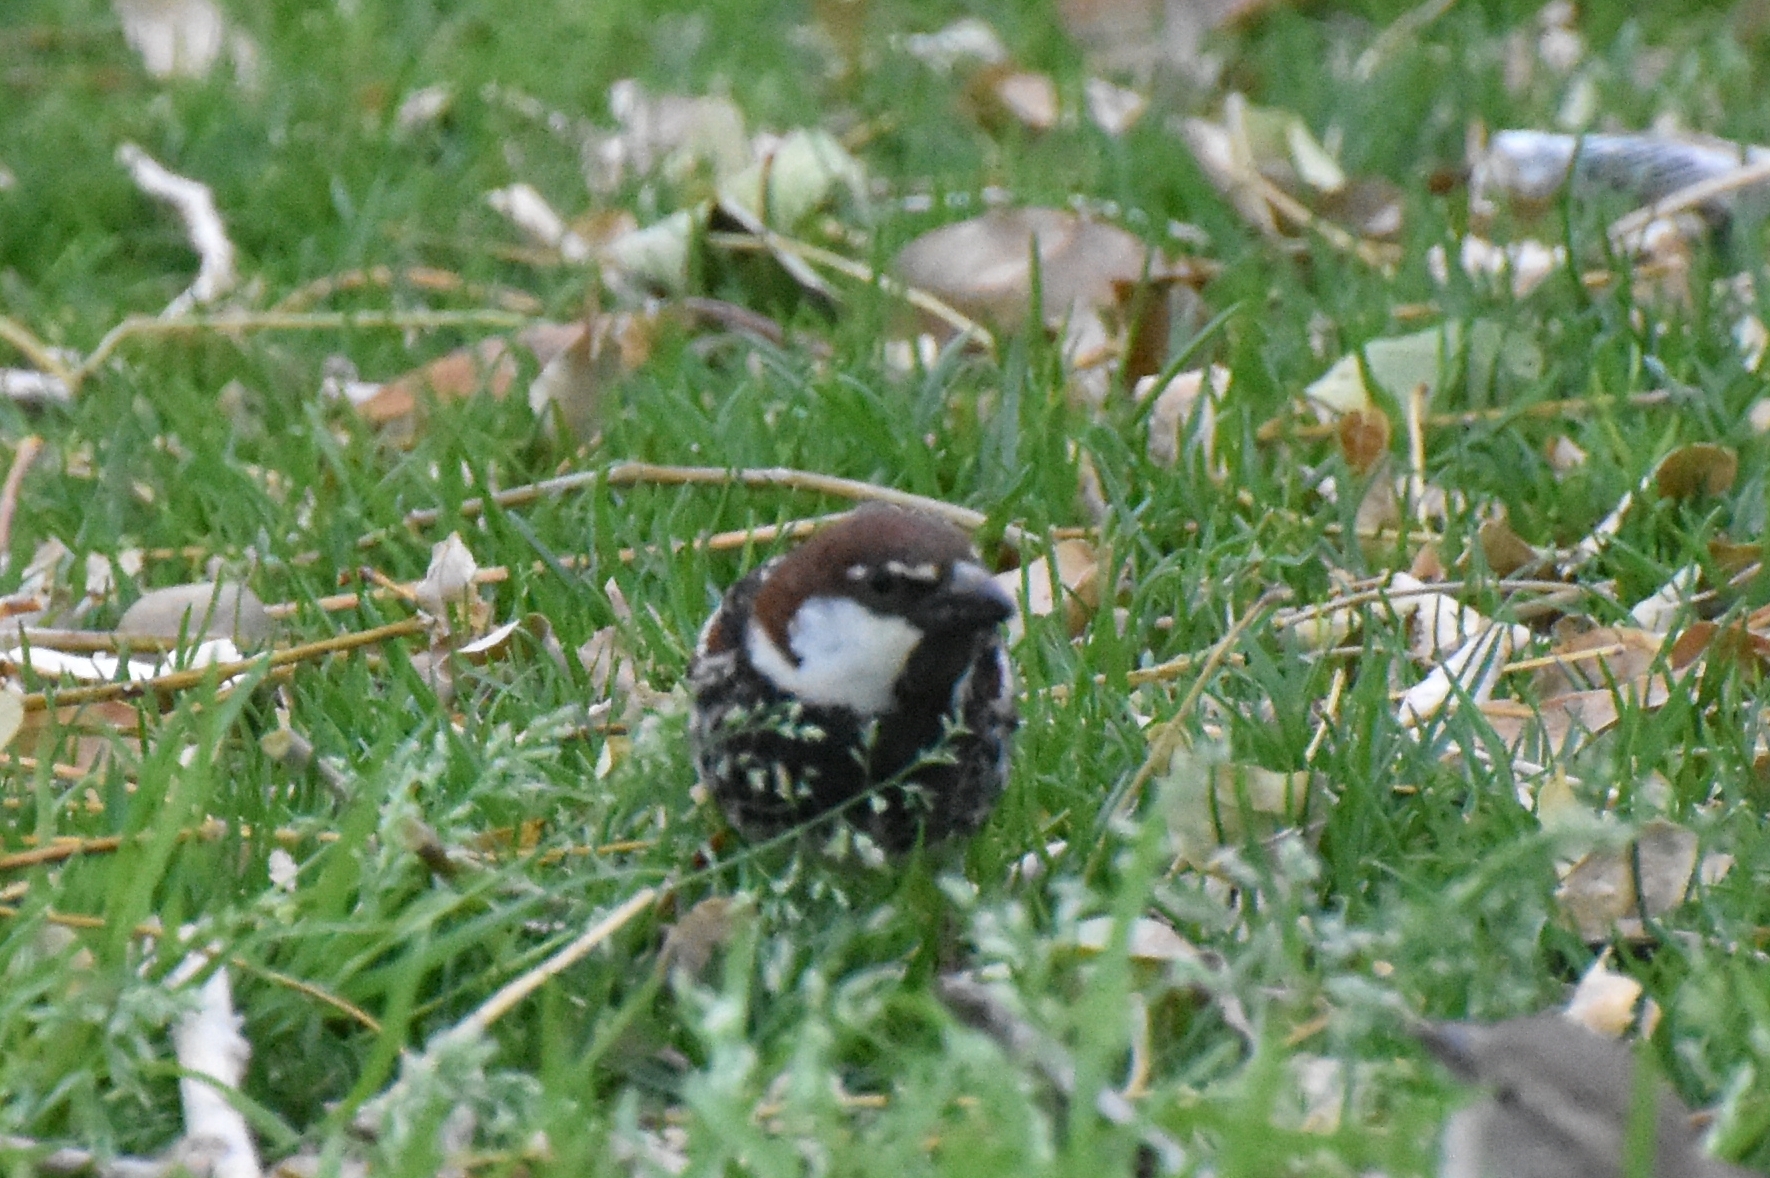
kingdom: Animalia
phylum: Chordata
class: Aves
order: Passeriformes
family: Passeridae
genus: Passer
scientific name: Passer hispaniolensis
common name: Spanish sparrow
